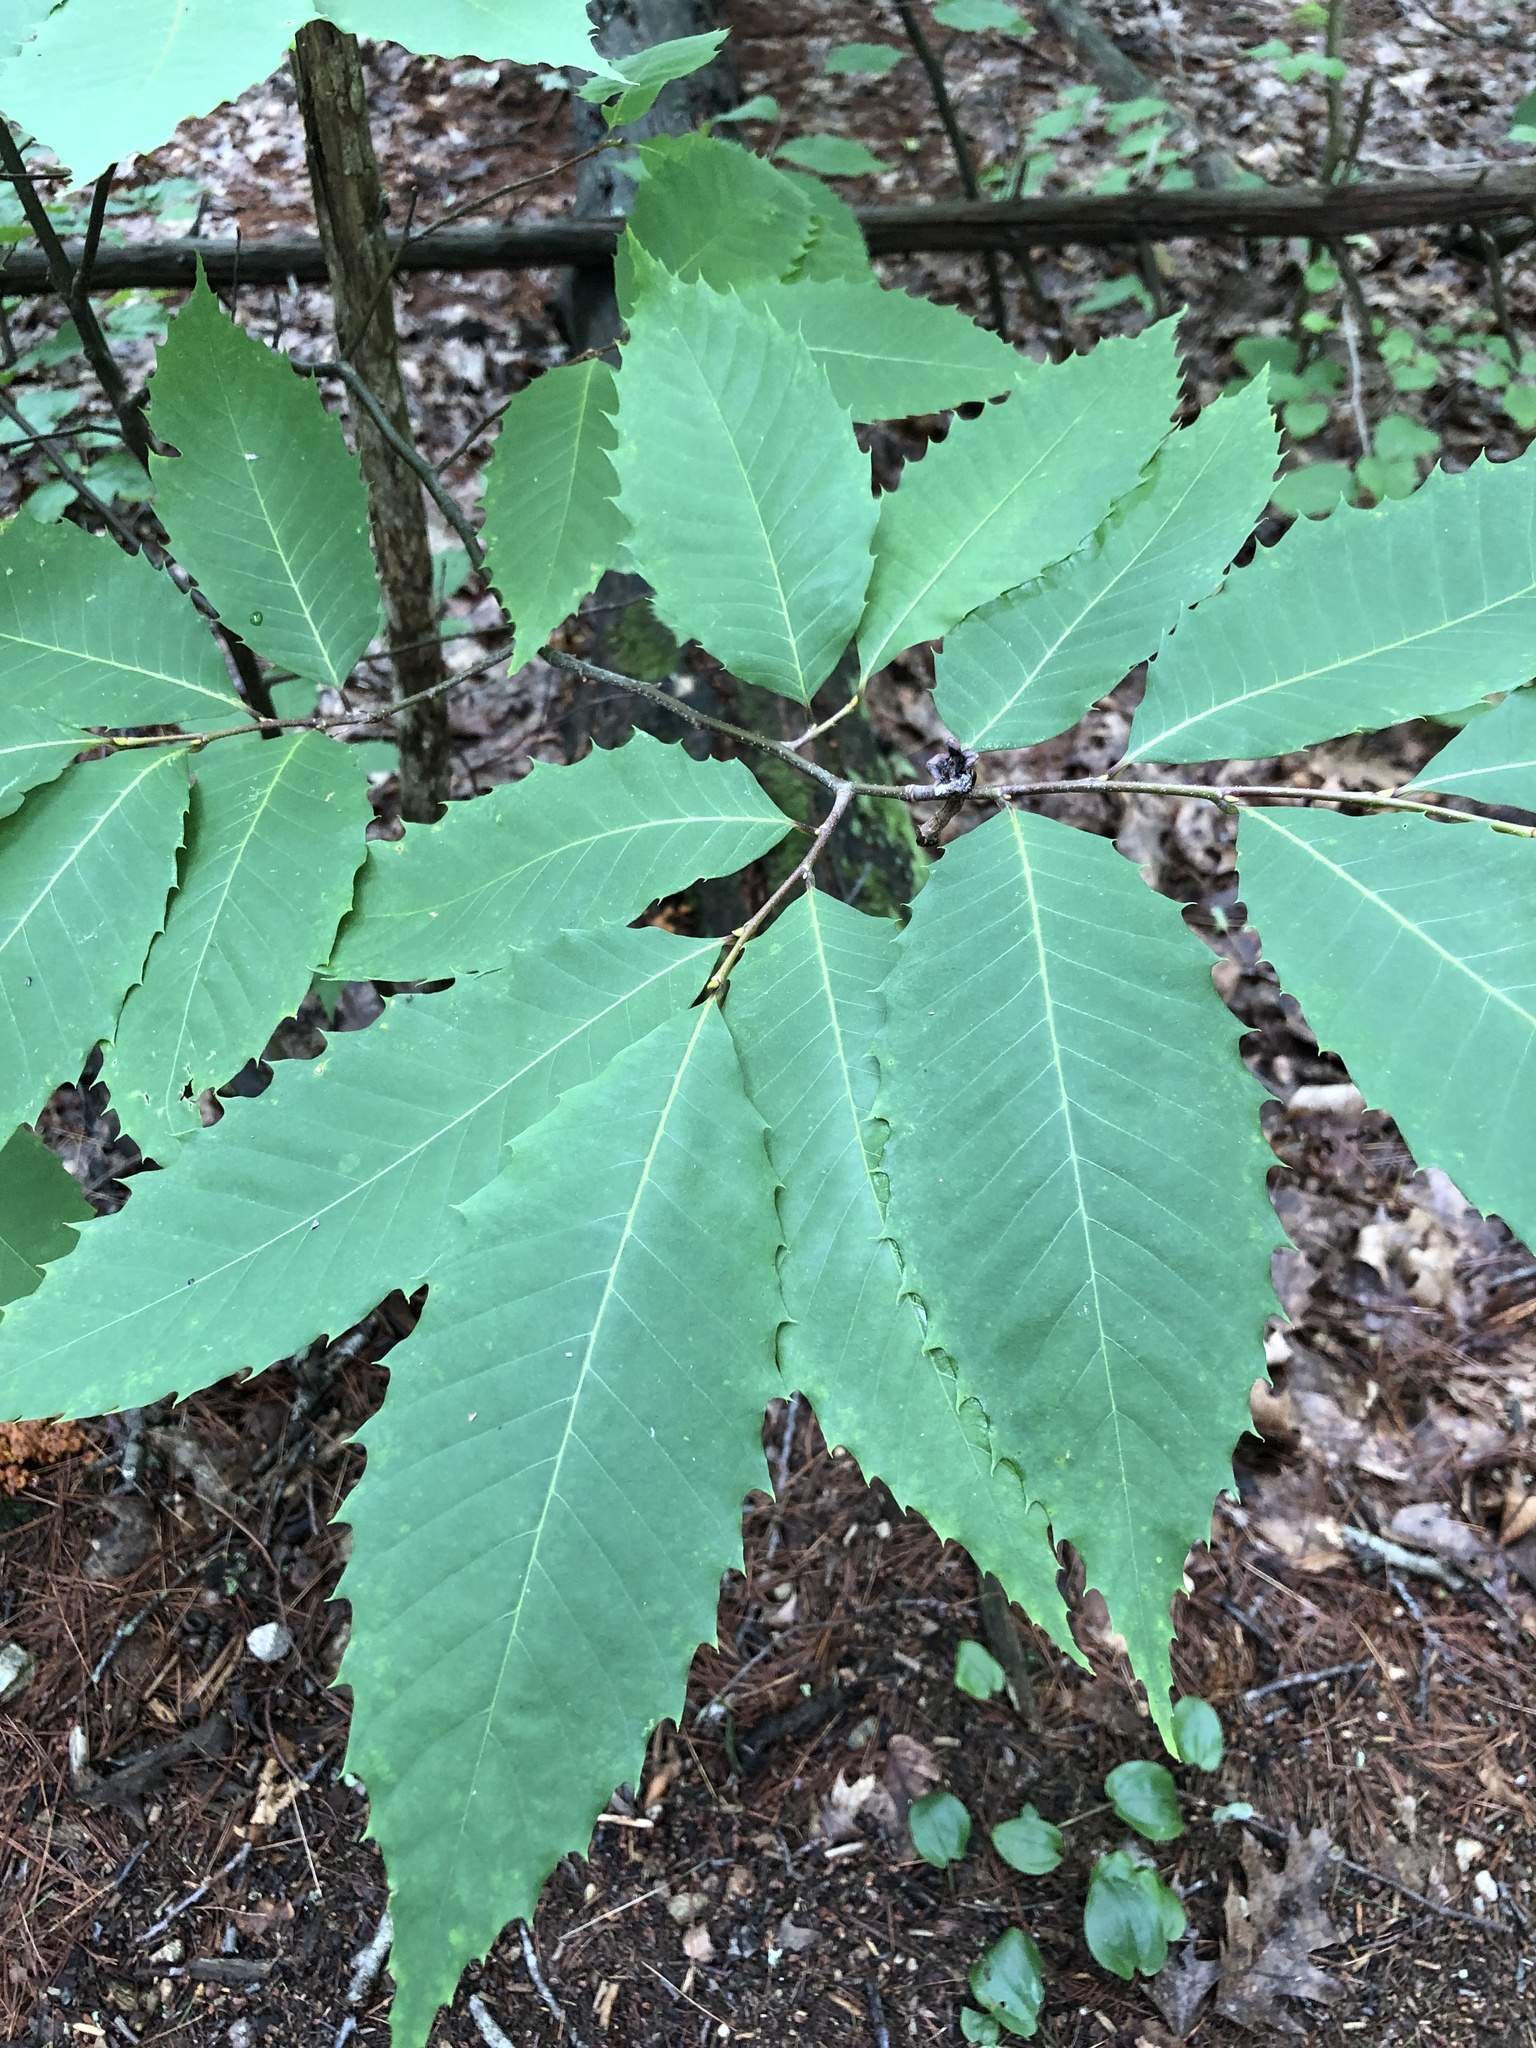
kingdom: Plantae
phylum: Tracheophyta
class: Magnoliopsida
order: Fagales
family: Fagaceae
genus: Castanea
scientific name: Castanea dentata
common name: American chestnut
